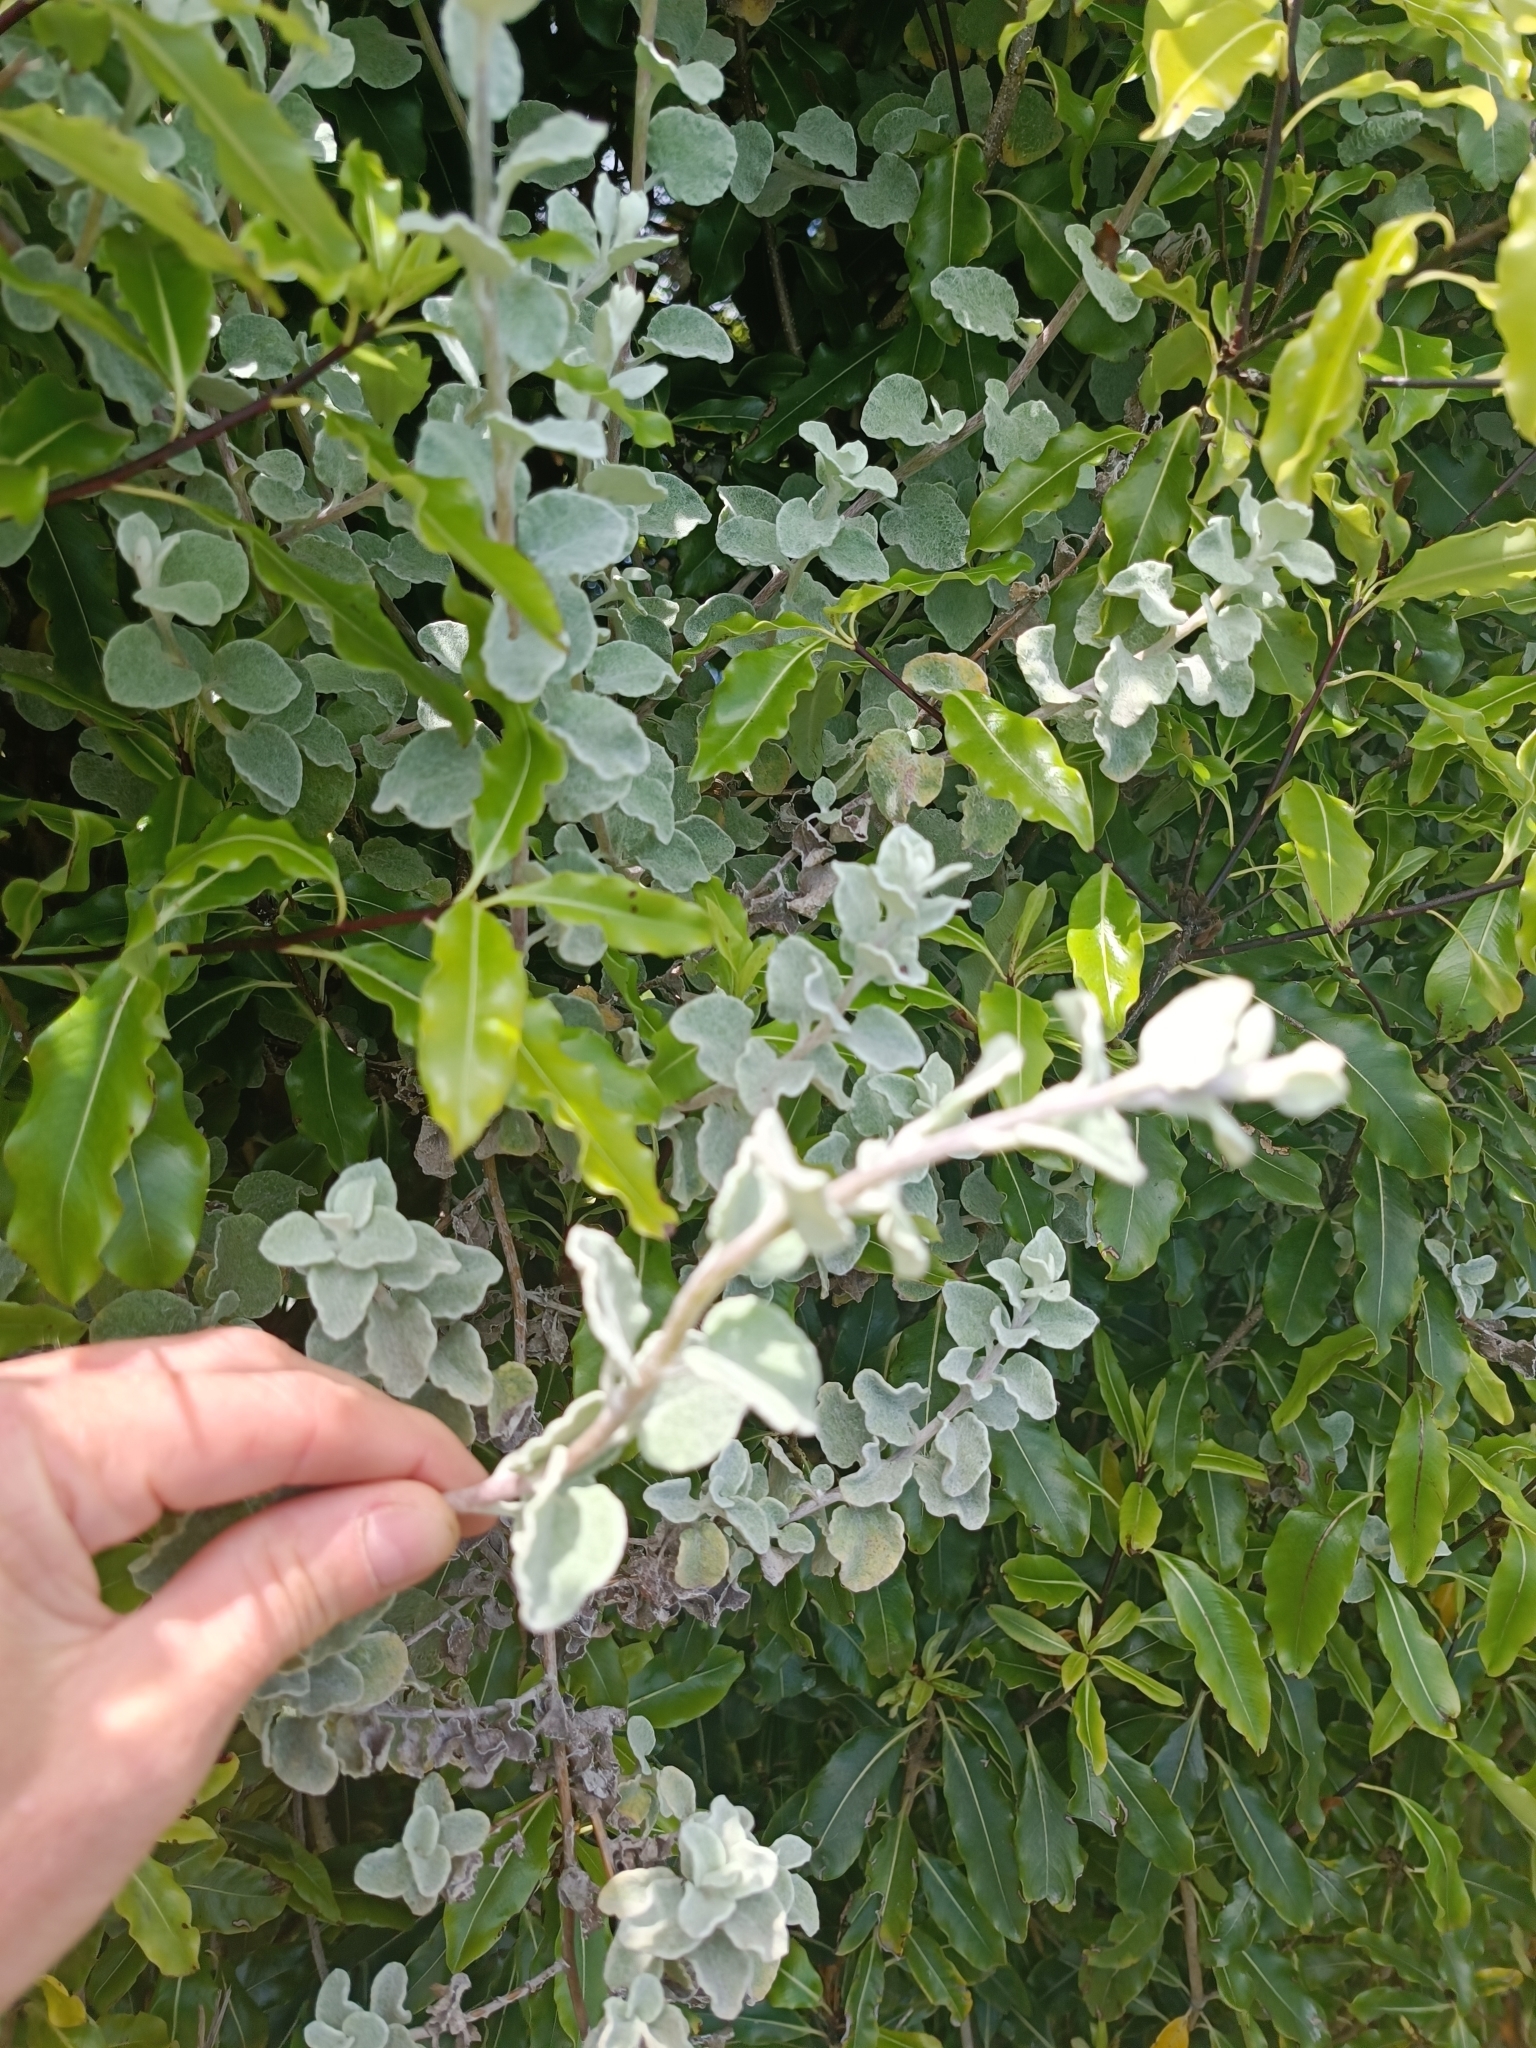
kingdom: Plantae
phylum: Tracheophyta
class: Magnoliopsida
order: Asterales
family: Asteraceae
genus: Helichrysum
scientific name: Helichrysum petiolare
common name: Licorice-plant
